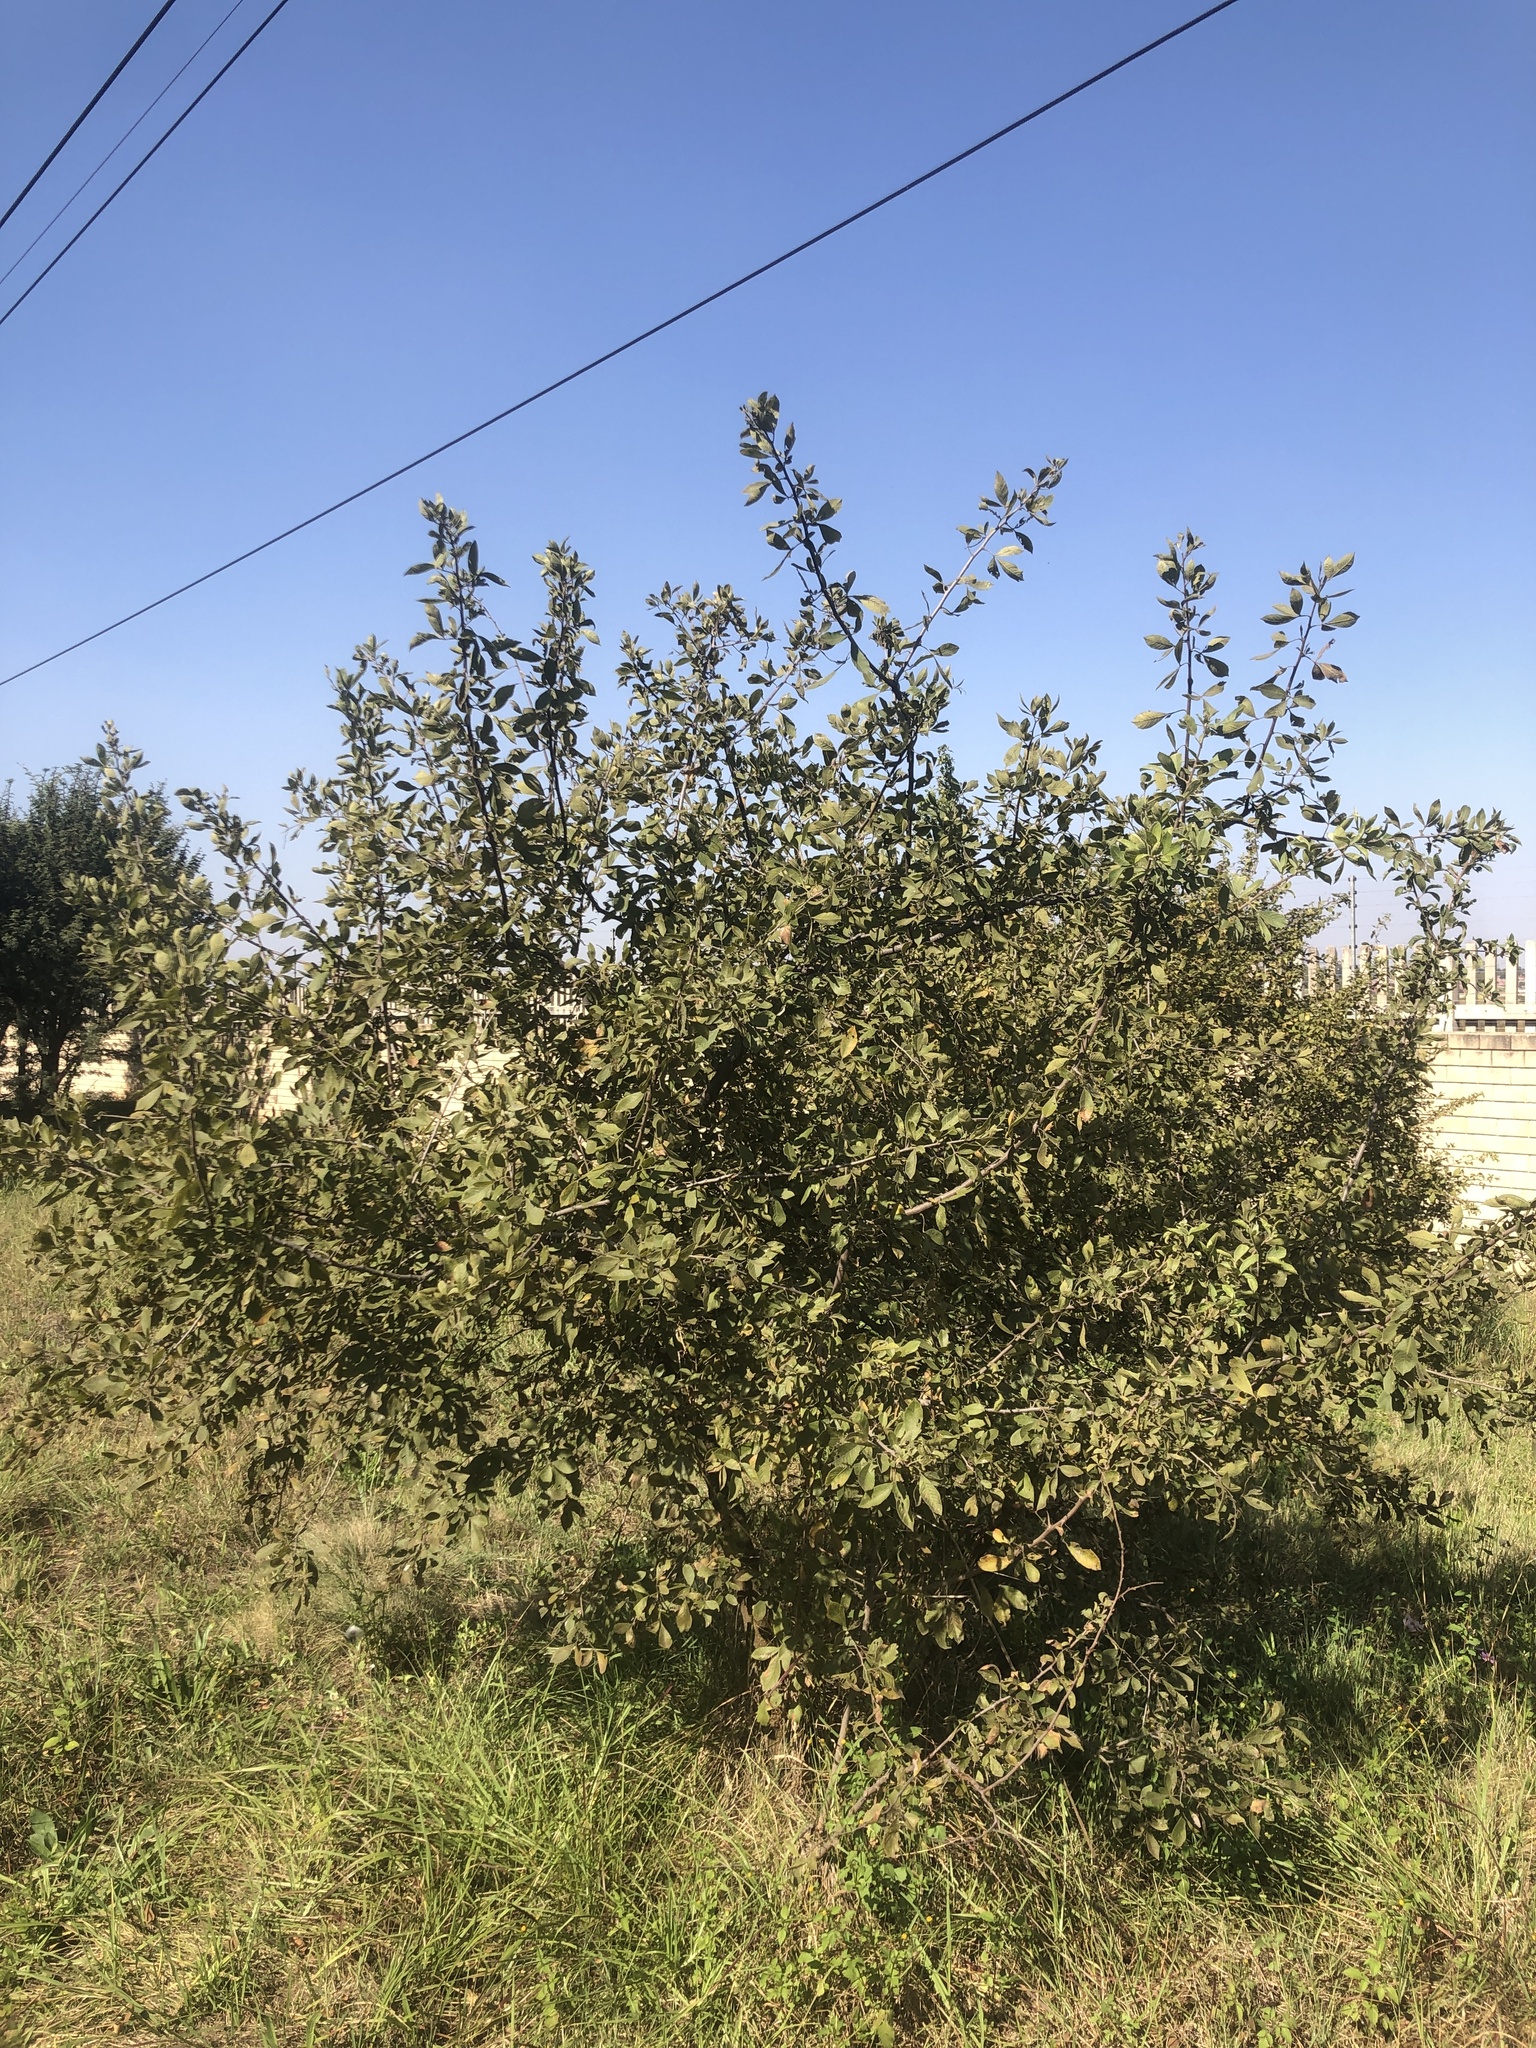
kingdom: Plantae
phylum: Tracheophyta
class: Magnoliopsida
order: Sapindales
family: Anacardiaceae
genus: Searsia
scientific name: Searsia pyroides
